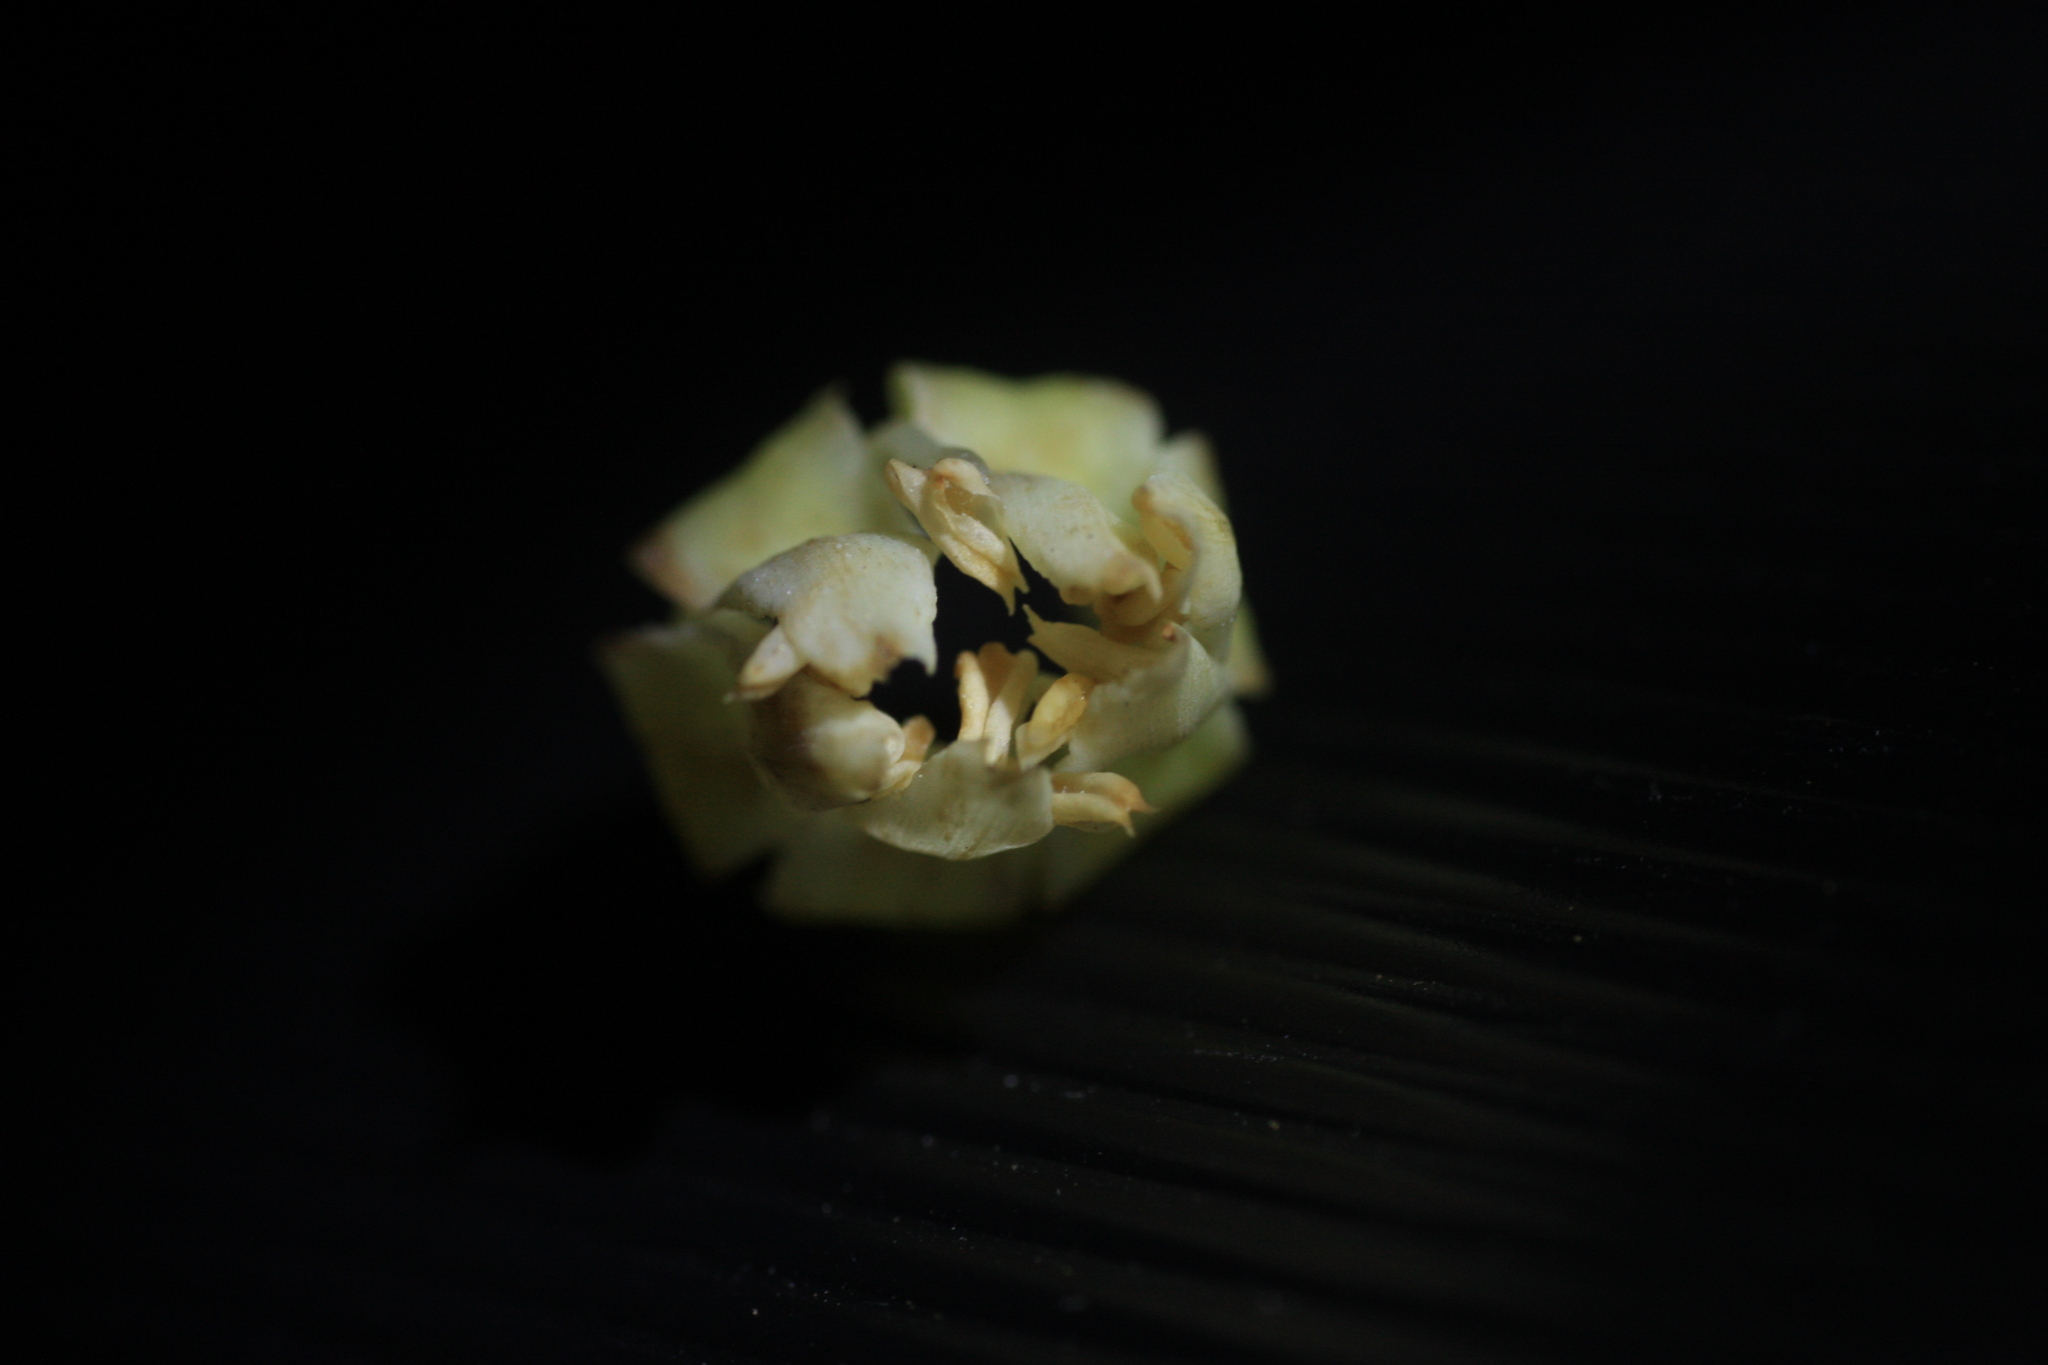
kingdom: Plantae
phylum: Tracheophyta
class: Magnoliopsida
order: Ericales
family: Sapotaceae
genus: Palaquium
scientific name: Palaquium ravii
